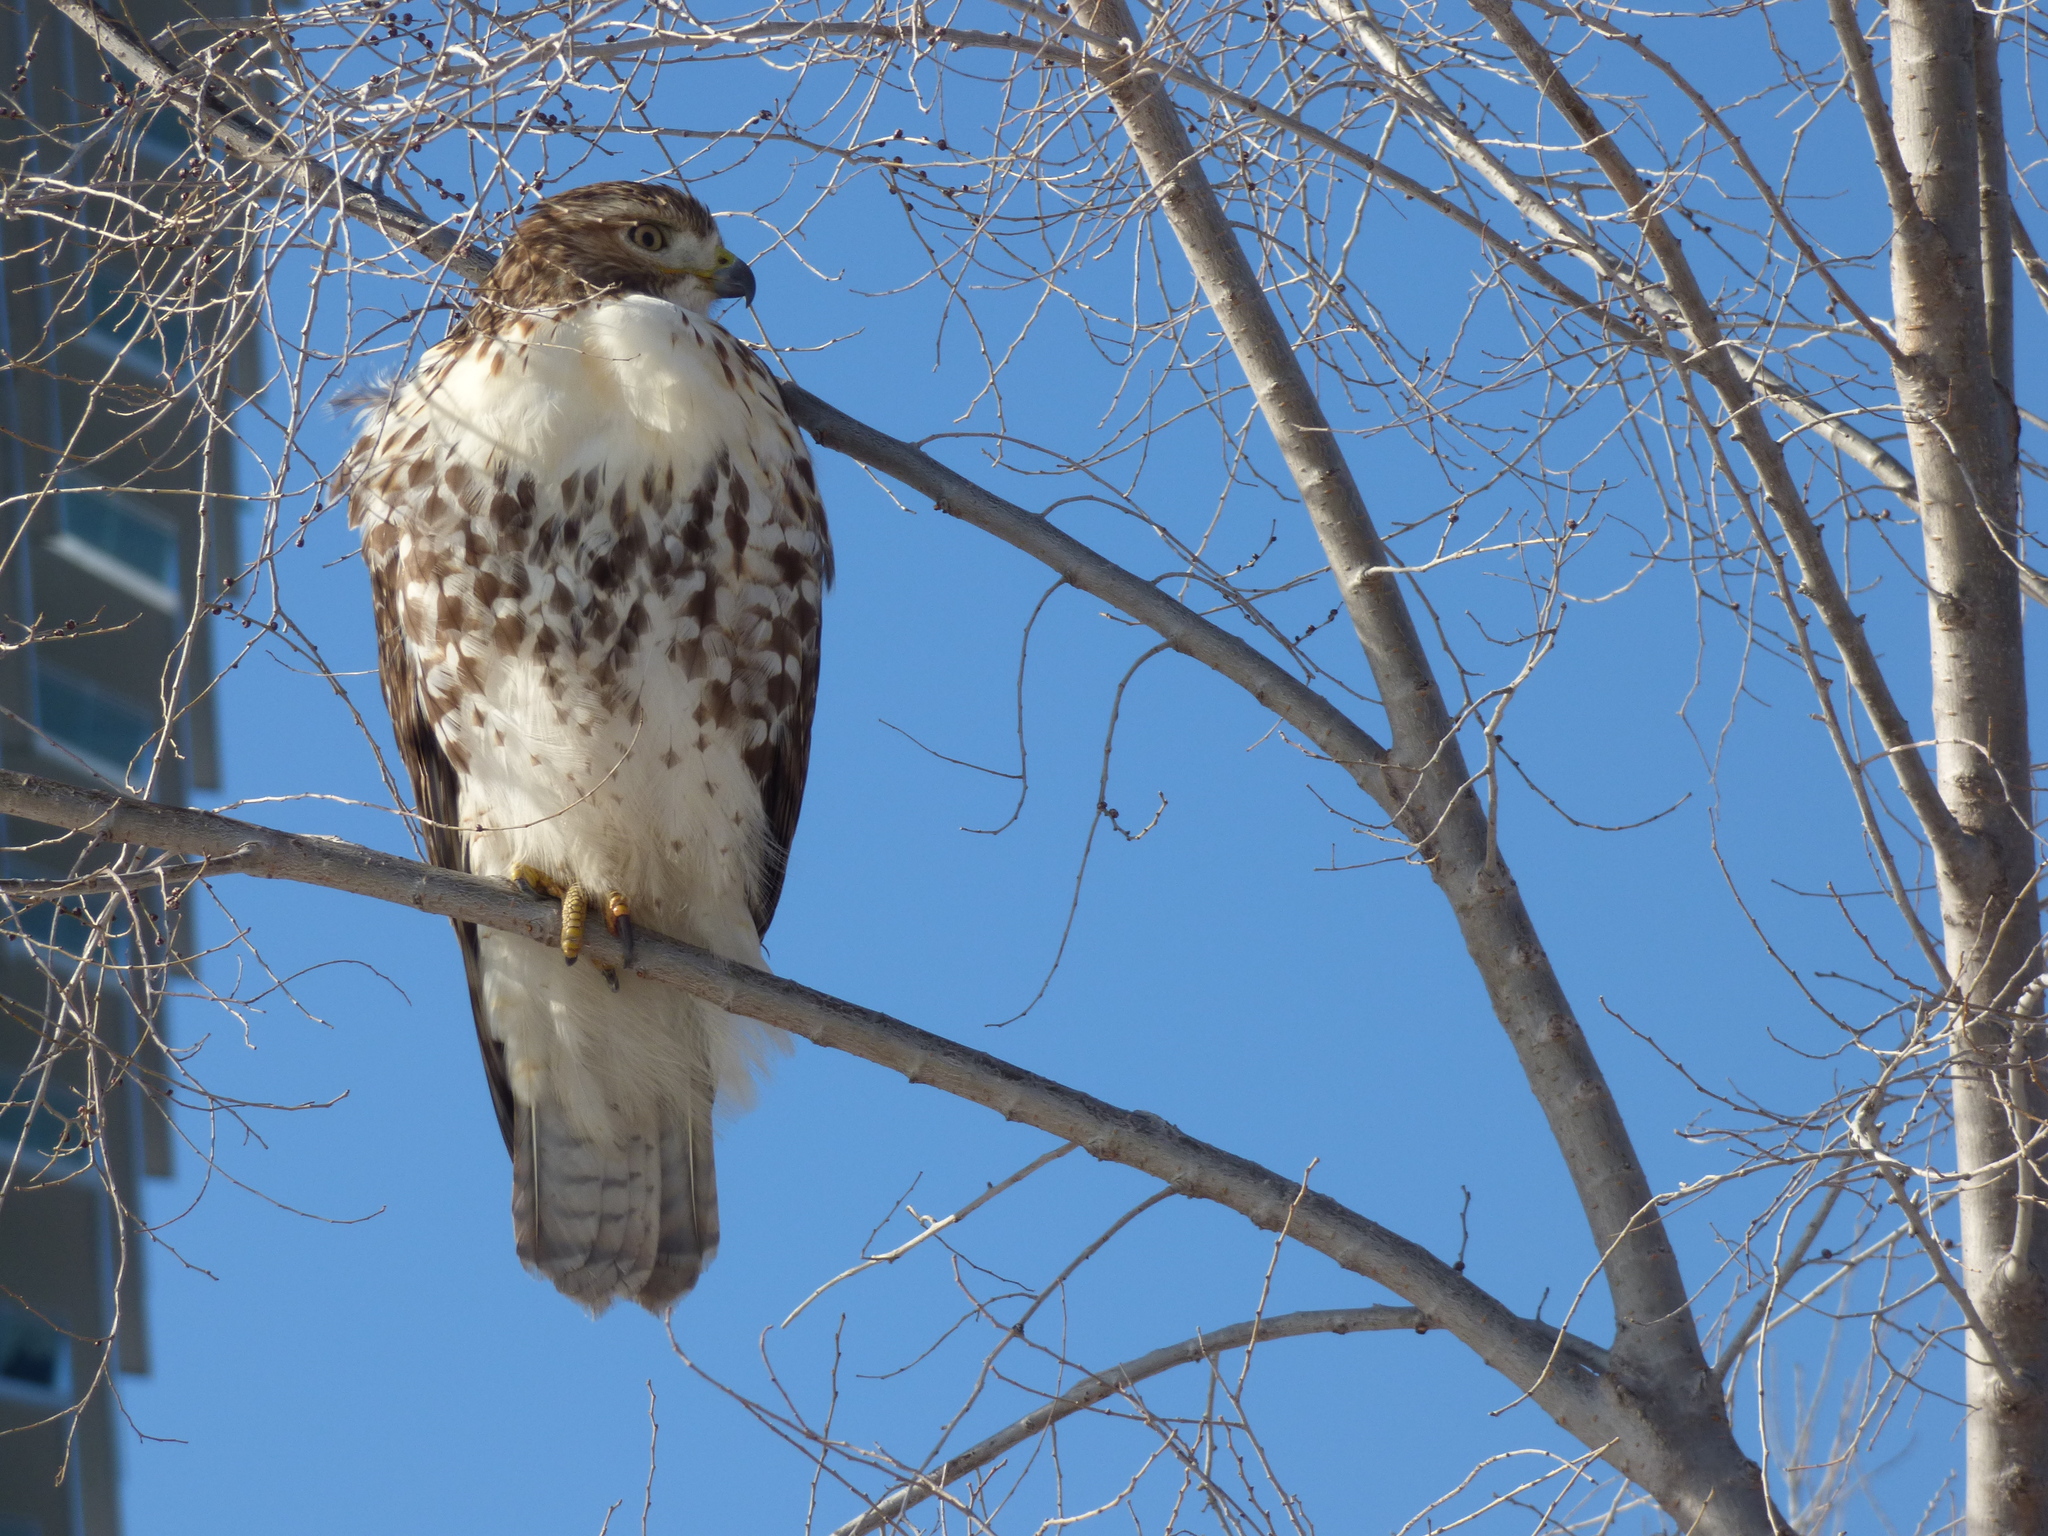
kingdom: Animalia
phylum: Chordata
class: Aves
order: Accipitriformes
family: Accipitridae
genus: Buteo
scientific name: Buteo jamaicensis
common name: Red-tailed hawk
